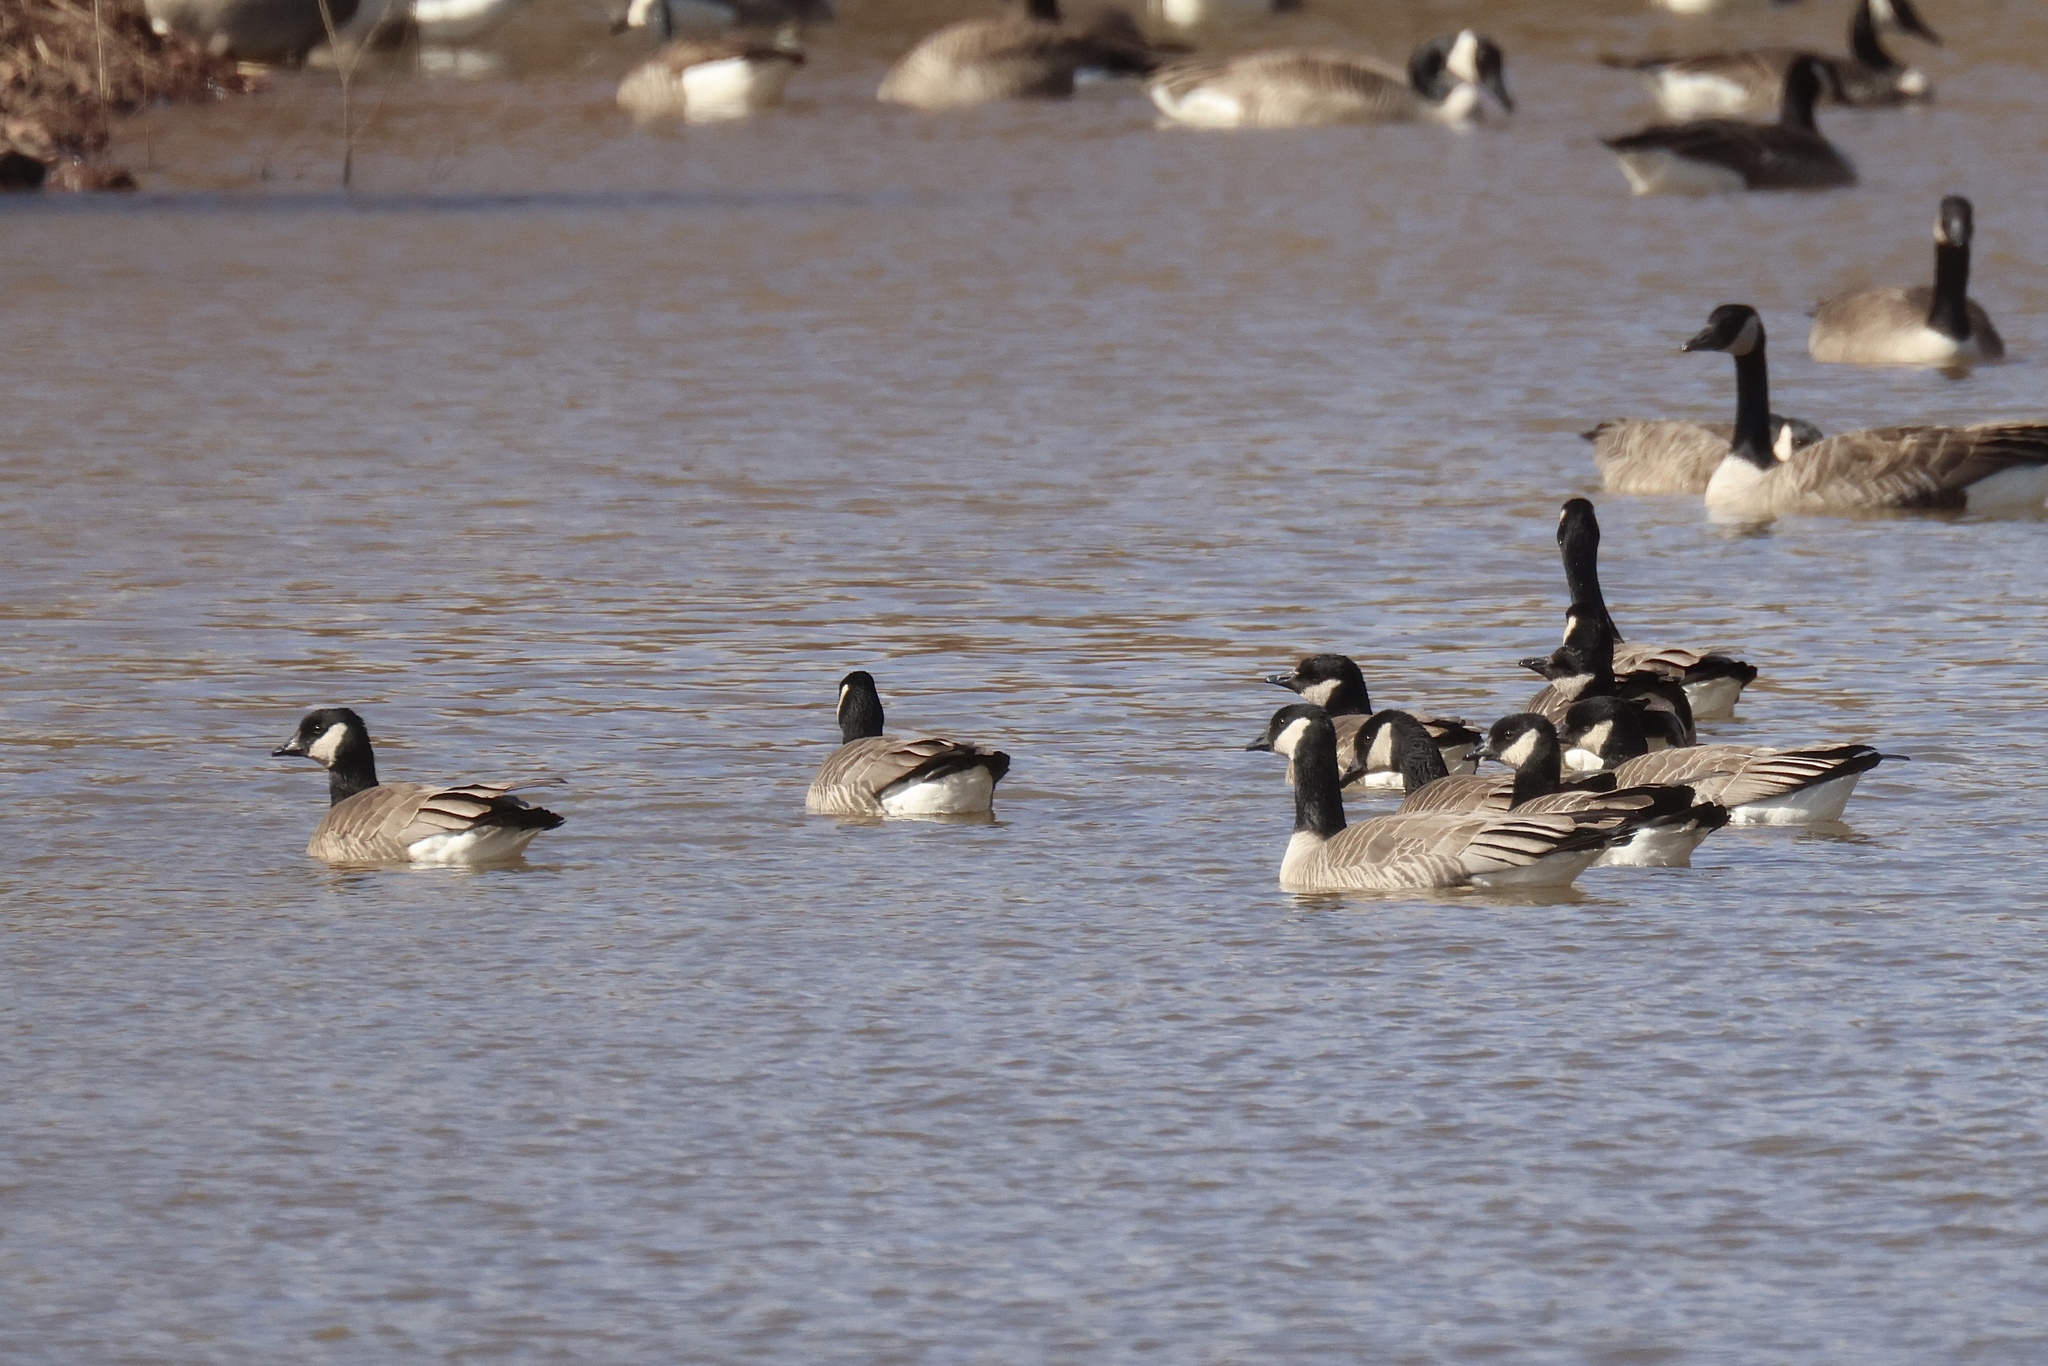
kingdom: Animalia
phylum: Chordata
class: Aves
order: Anseriformes
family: Anatidae
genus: Branta
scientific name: Branta canadensis
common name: Canada goose
